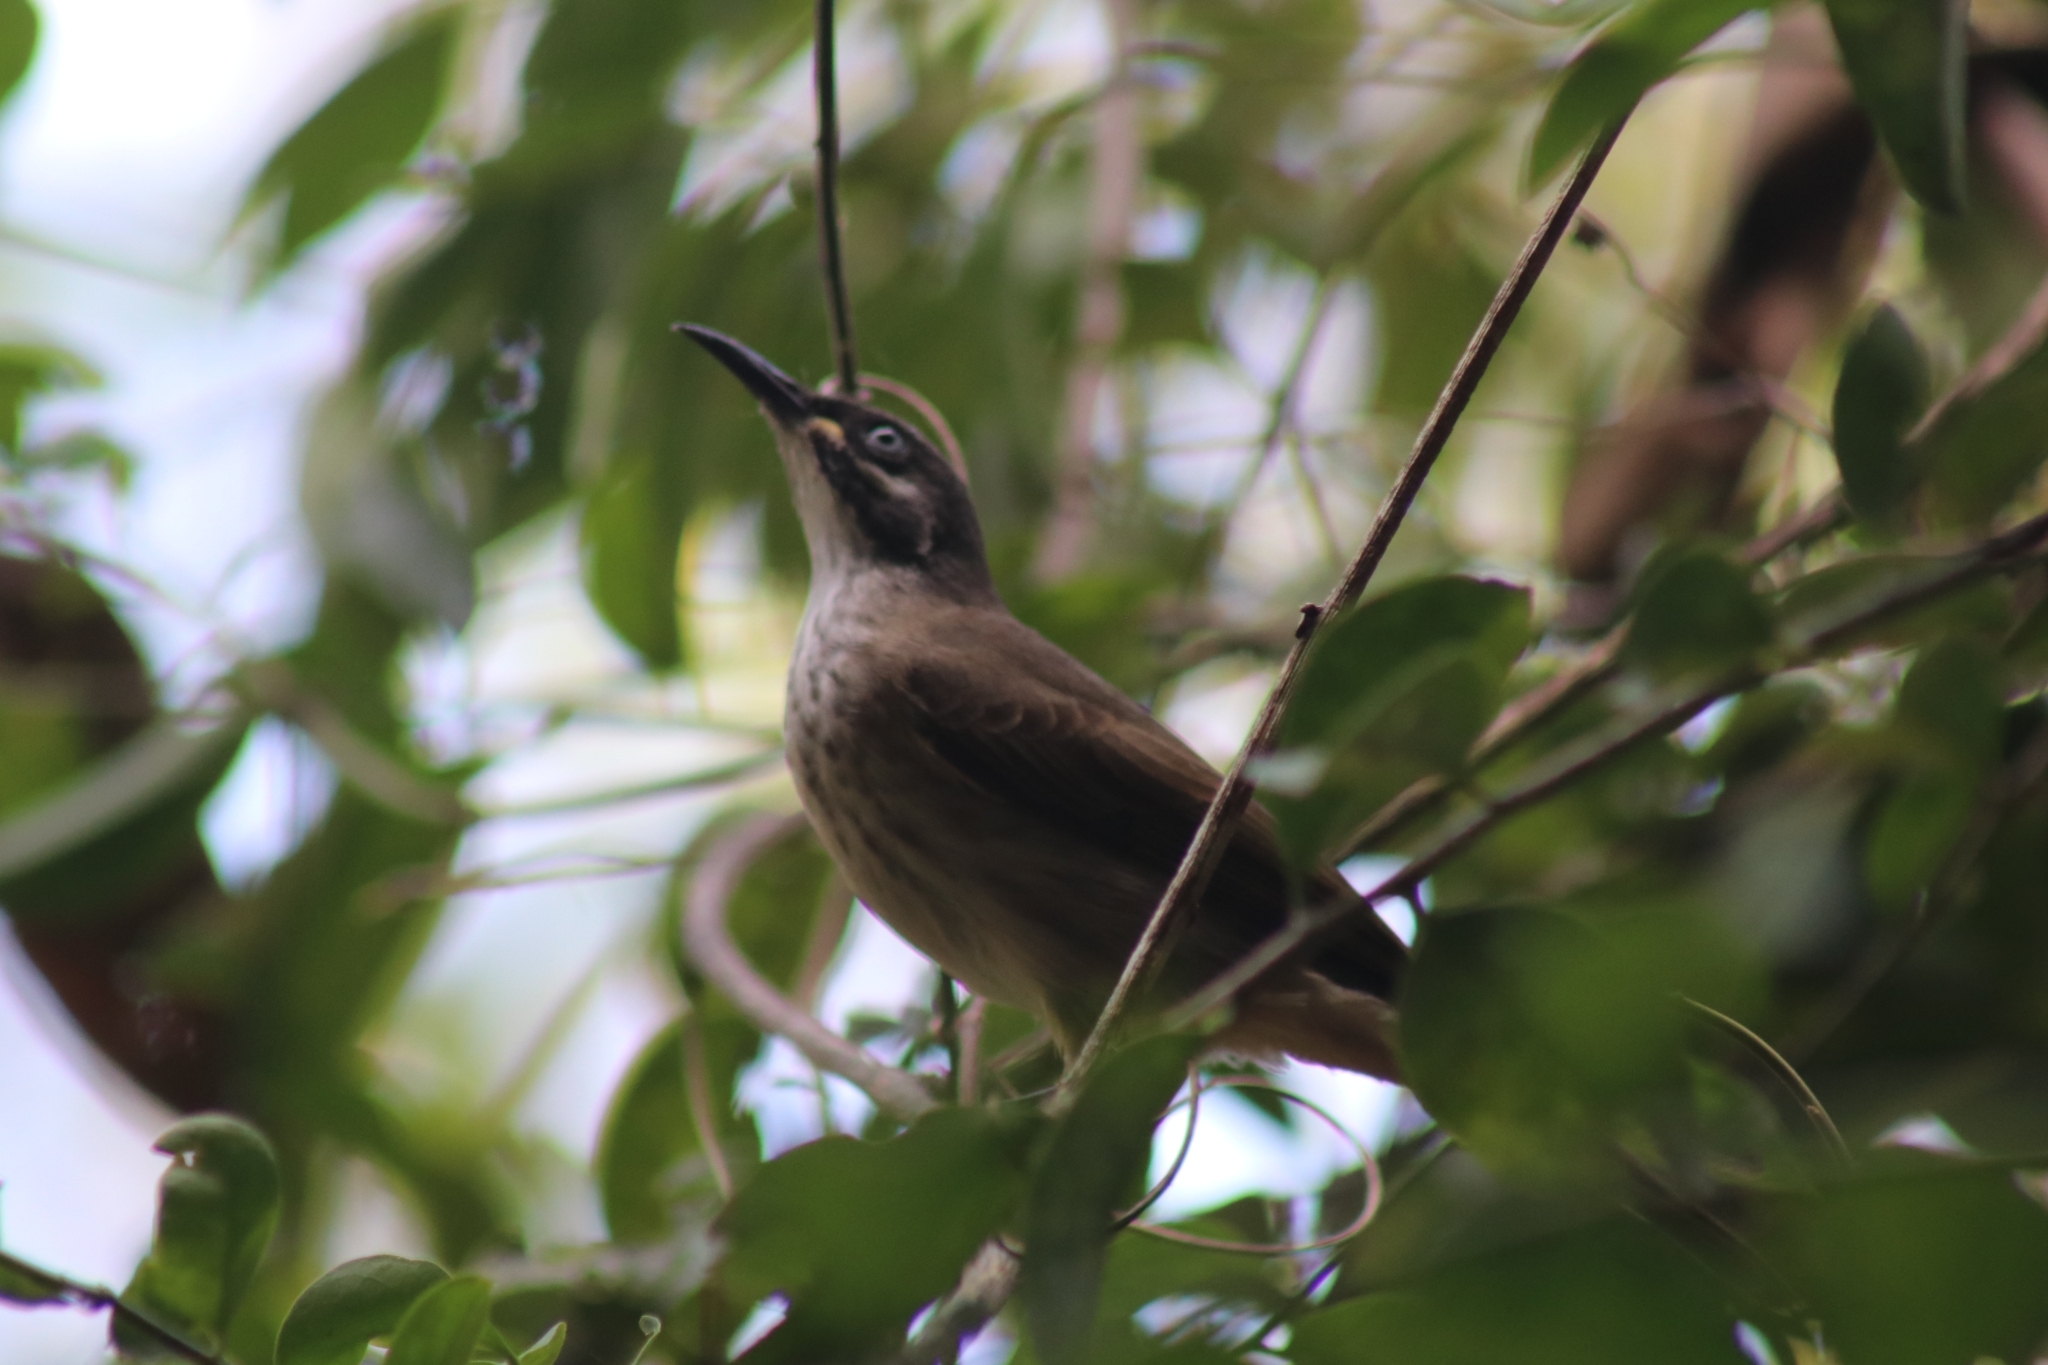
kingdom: Animalia
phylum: Chordata
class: Aves
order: Passeriformes
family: Meliphagidae
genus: Territornis
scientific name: Territornis albilineata
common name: White-lined honeyeater
